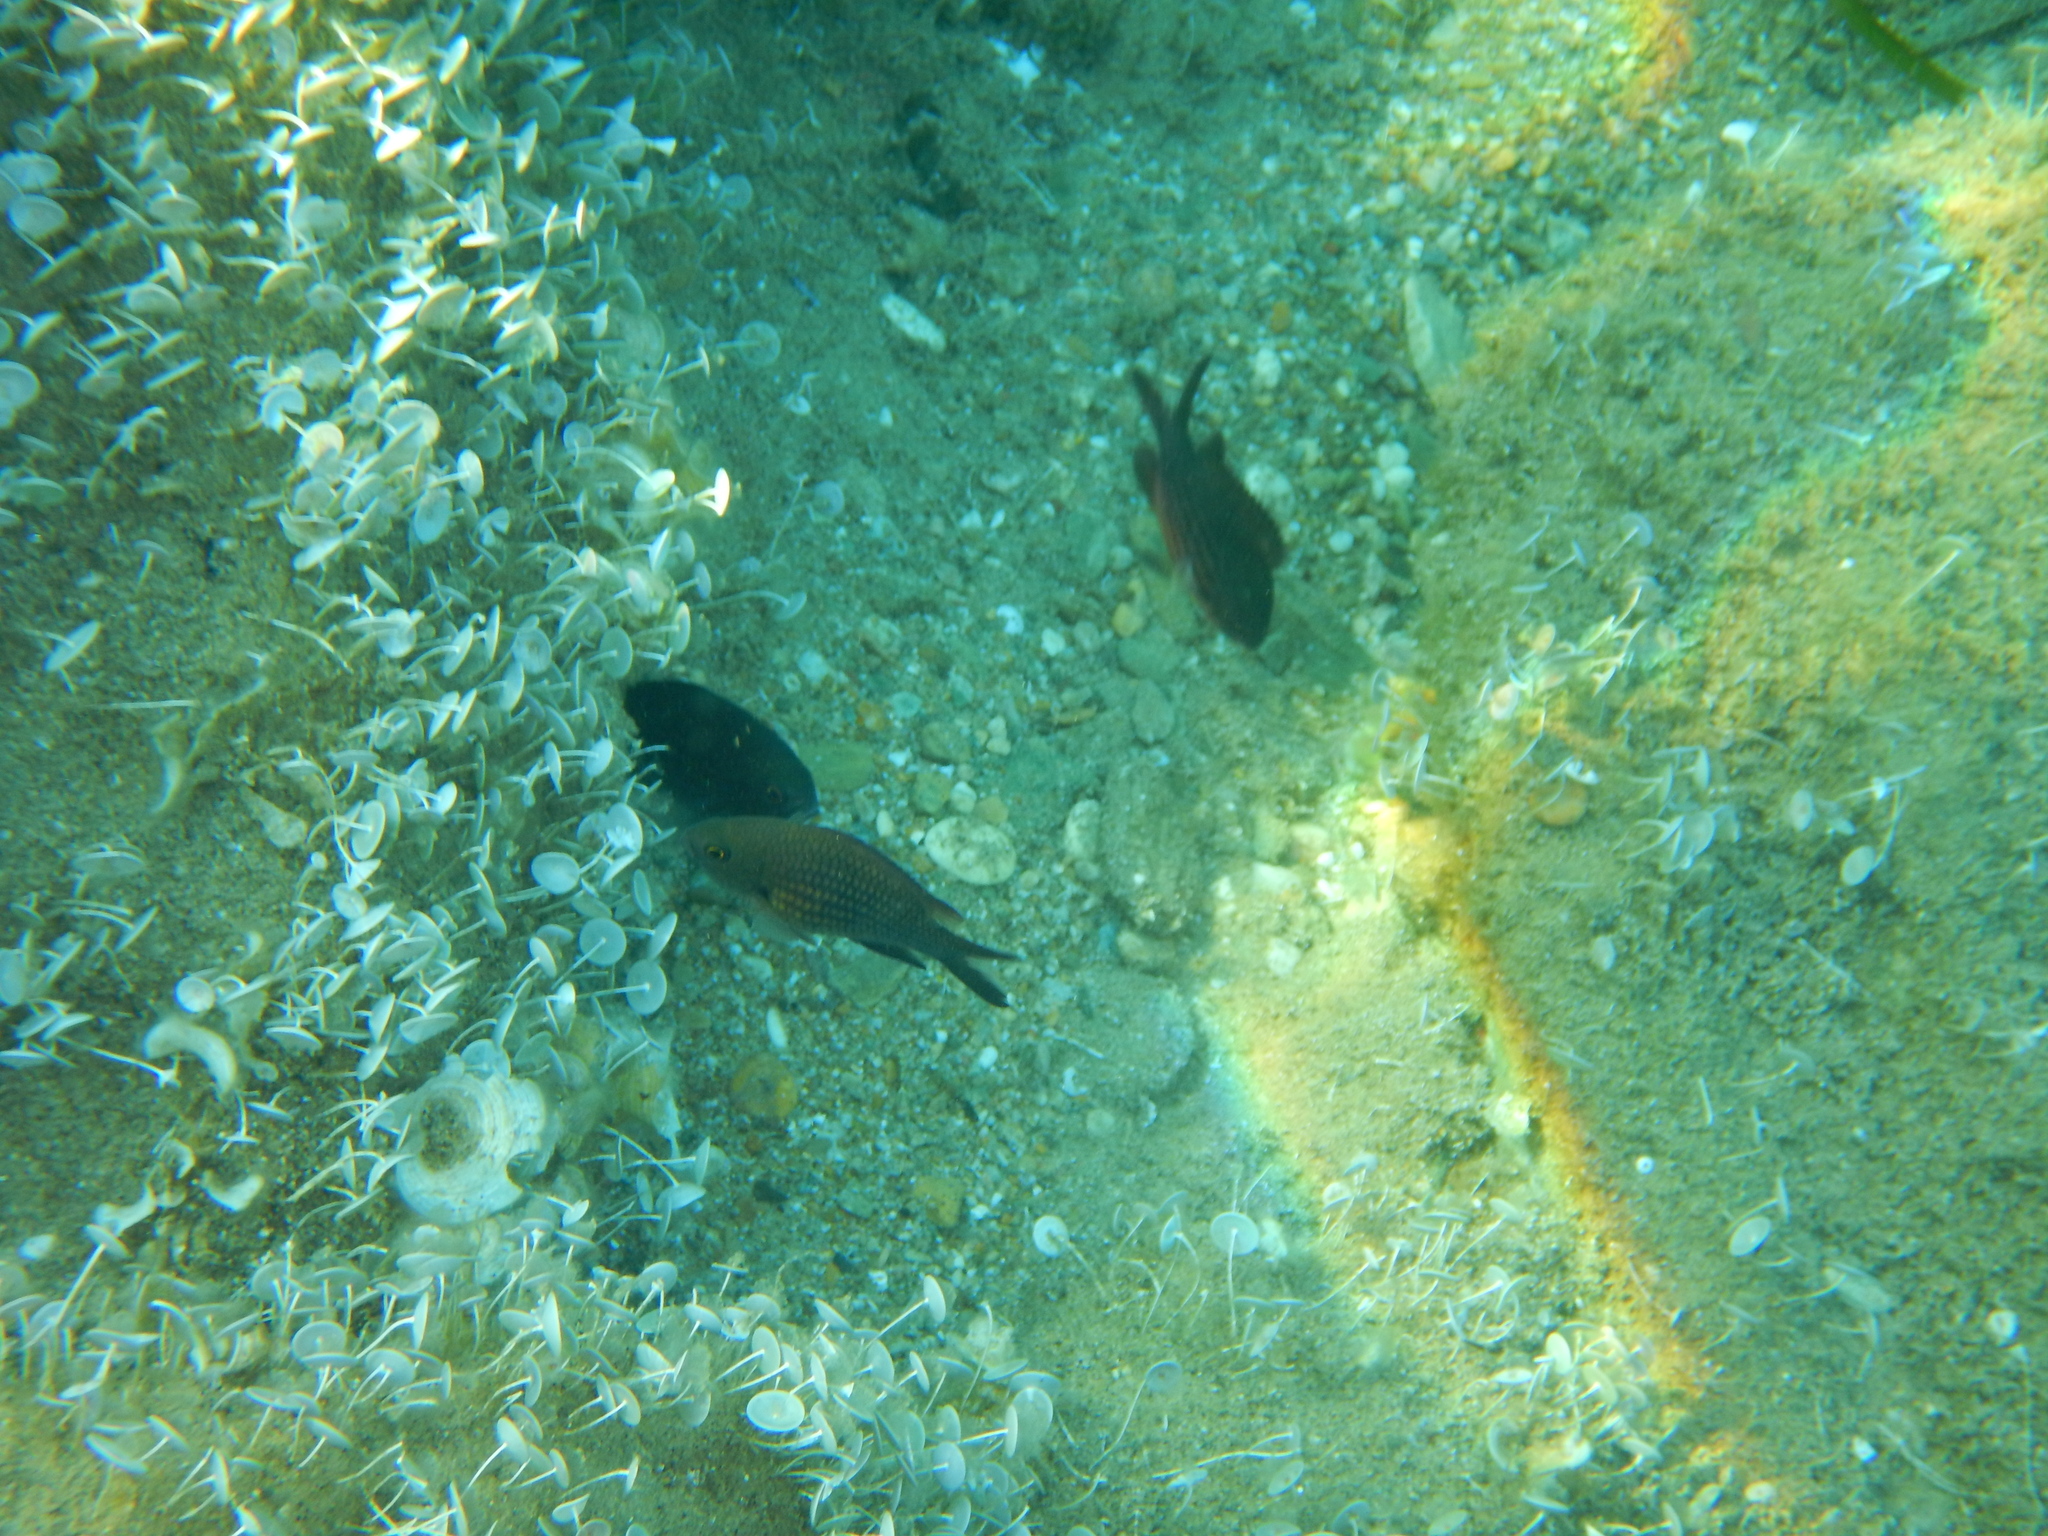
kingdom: Animalia
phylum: Chordata
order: Perciformes
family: Pomacentridae
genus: Chromis
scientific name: Chromis chromis
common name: Damselfish
